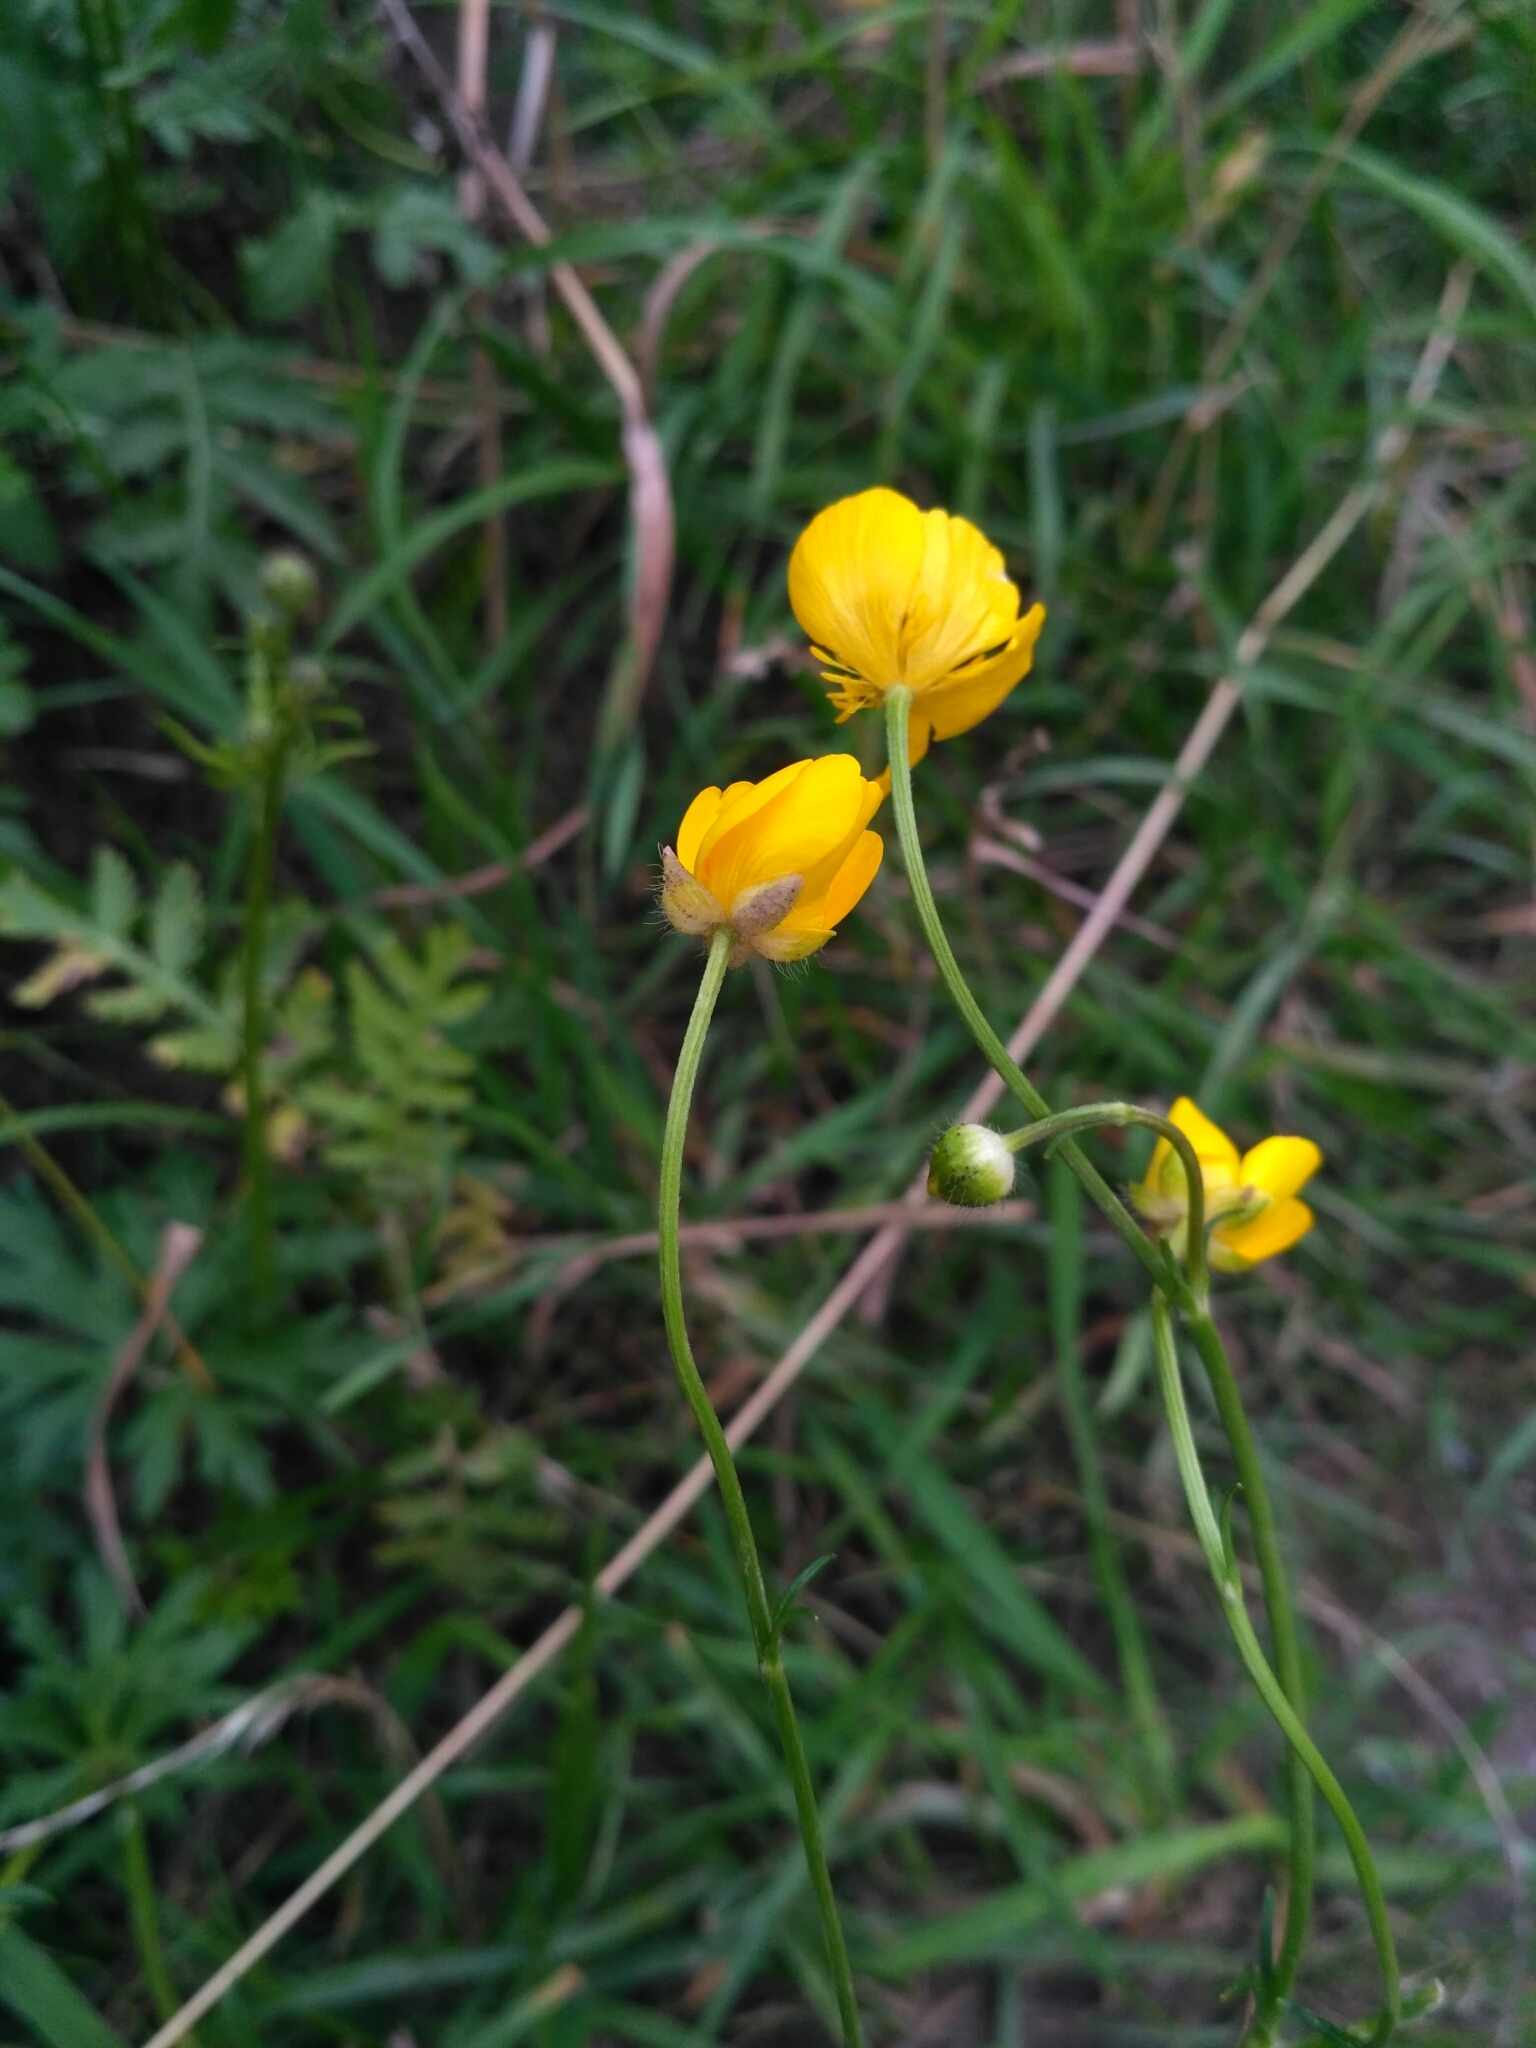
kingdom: Plantae
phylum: Tracheophyta
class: Magnoliopsida
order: Ranunculales
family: Ranunculaceae
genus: Ranunculus
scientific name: Ranunculus polyanthemos
